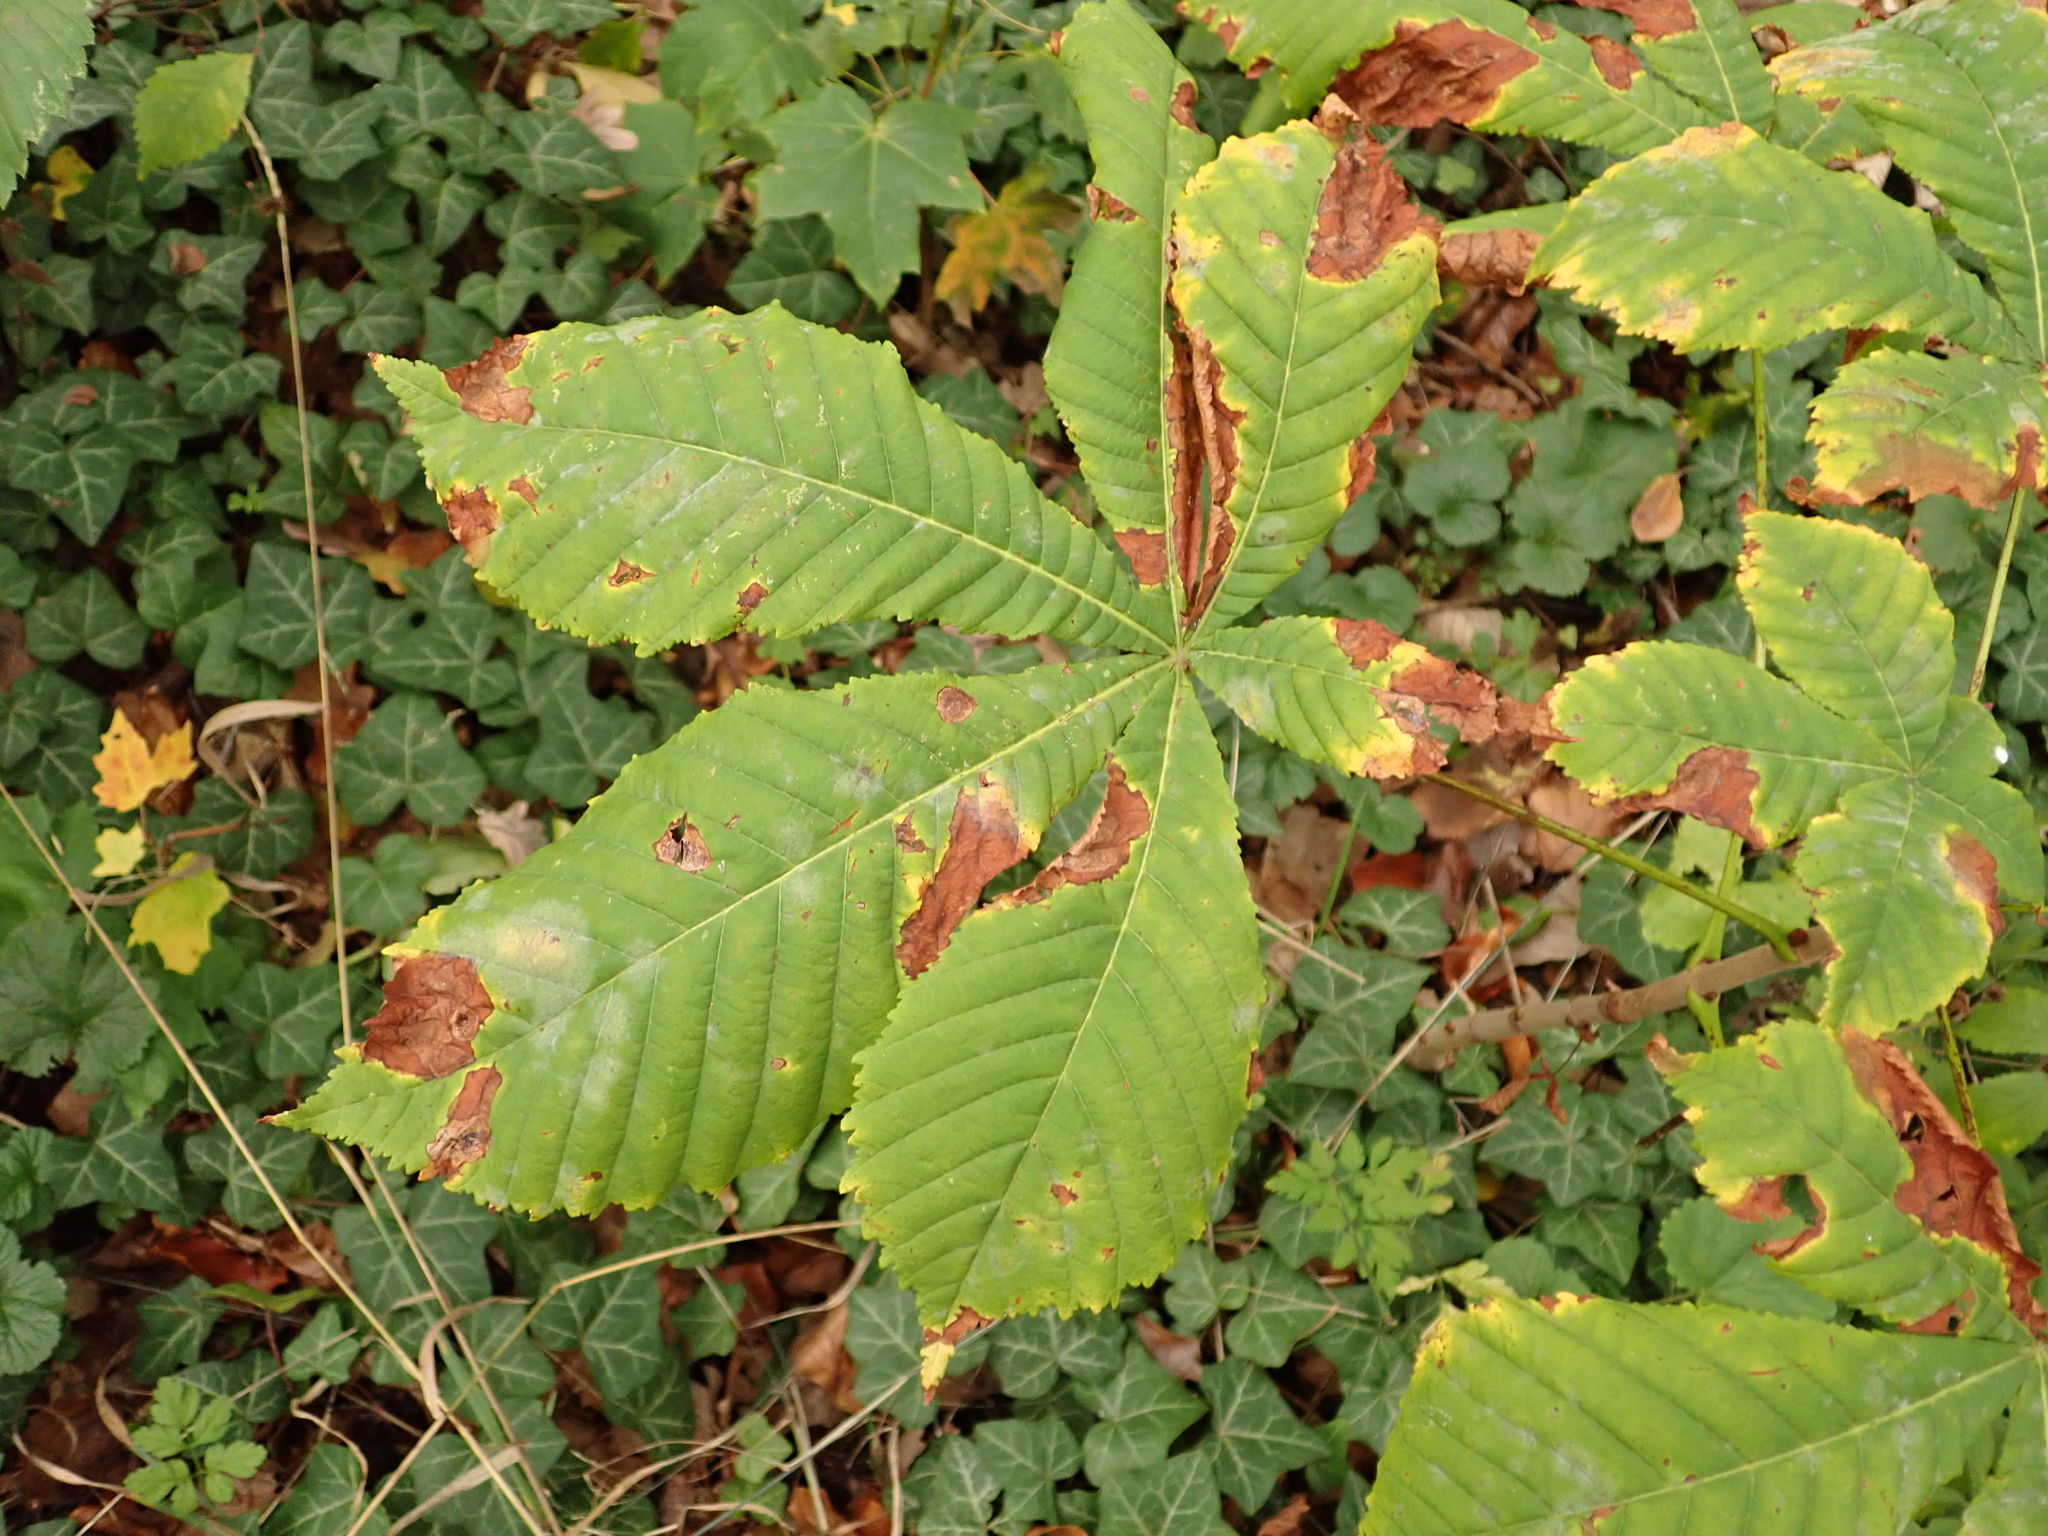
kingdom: Plantae
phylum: Tracheophyta
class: Magnoliopsida
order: Sapindales
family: Sapindaceae
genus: Aesculus
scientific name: Aesculus hippocastanum
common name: Horse-chestnut
